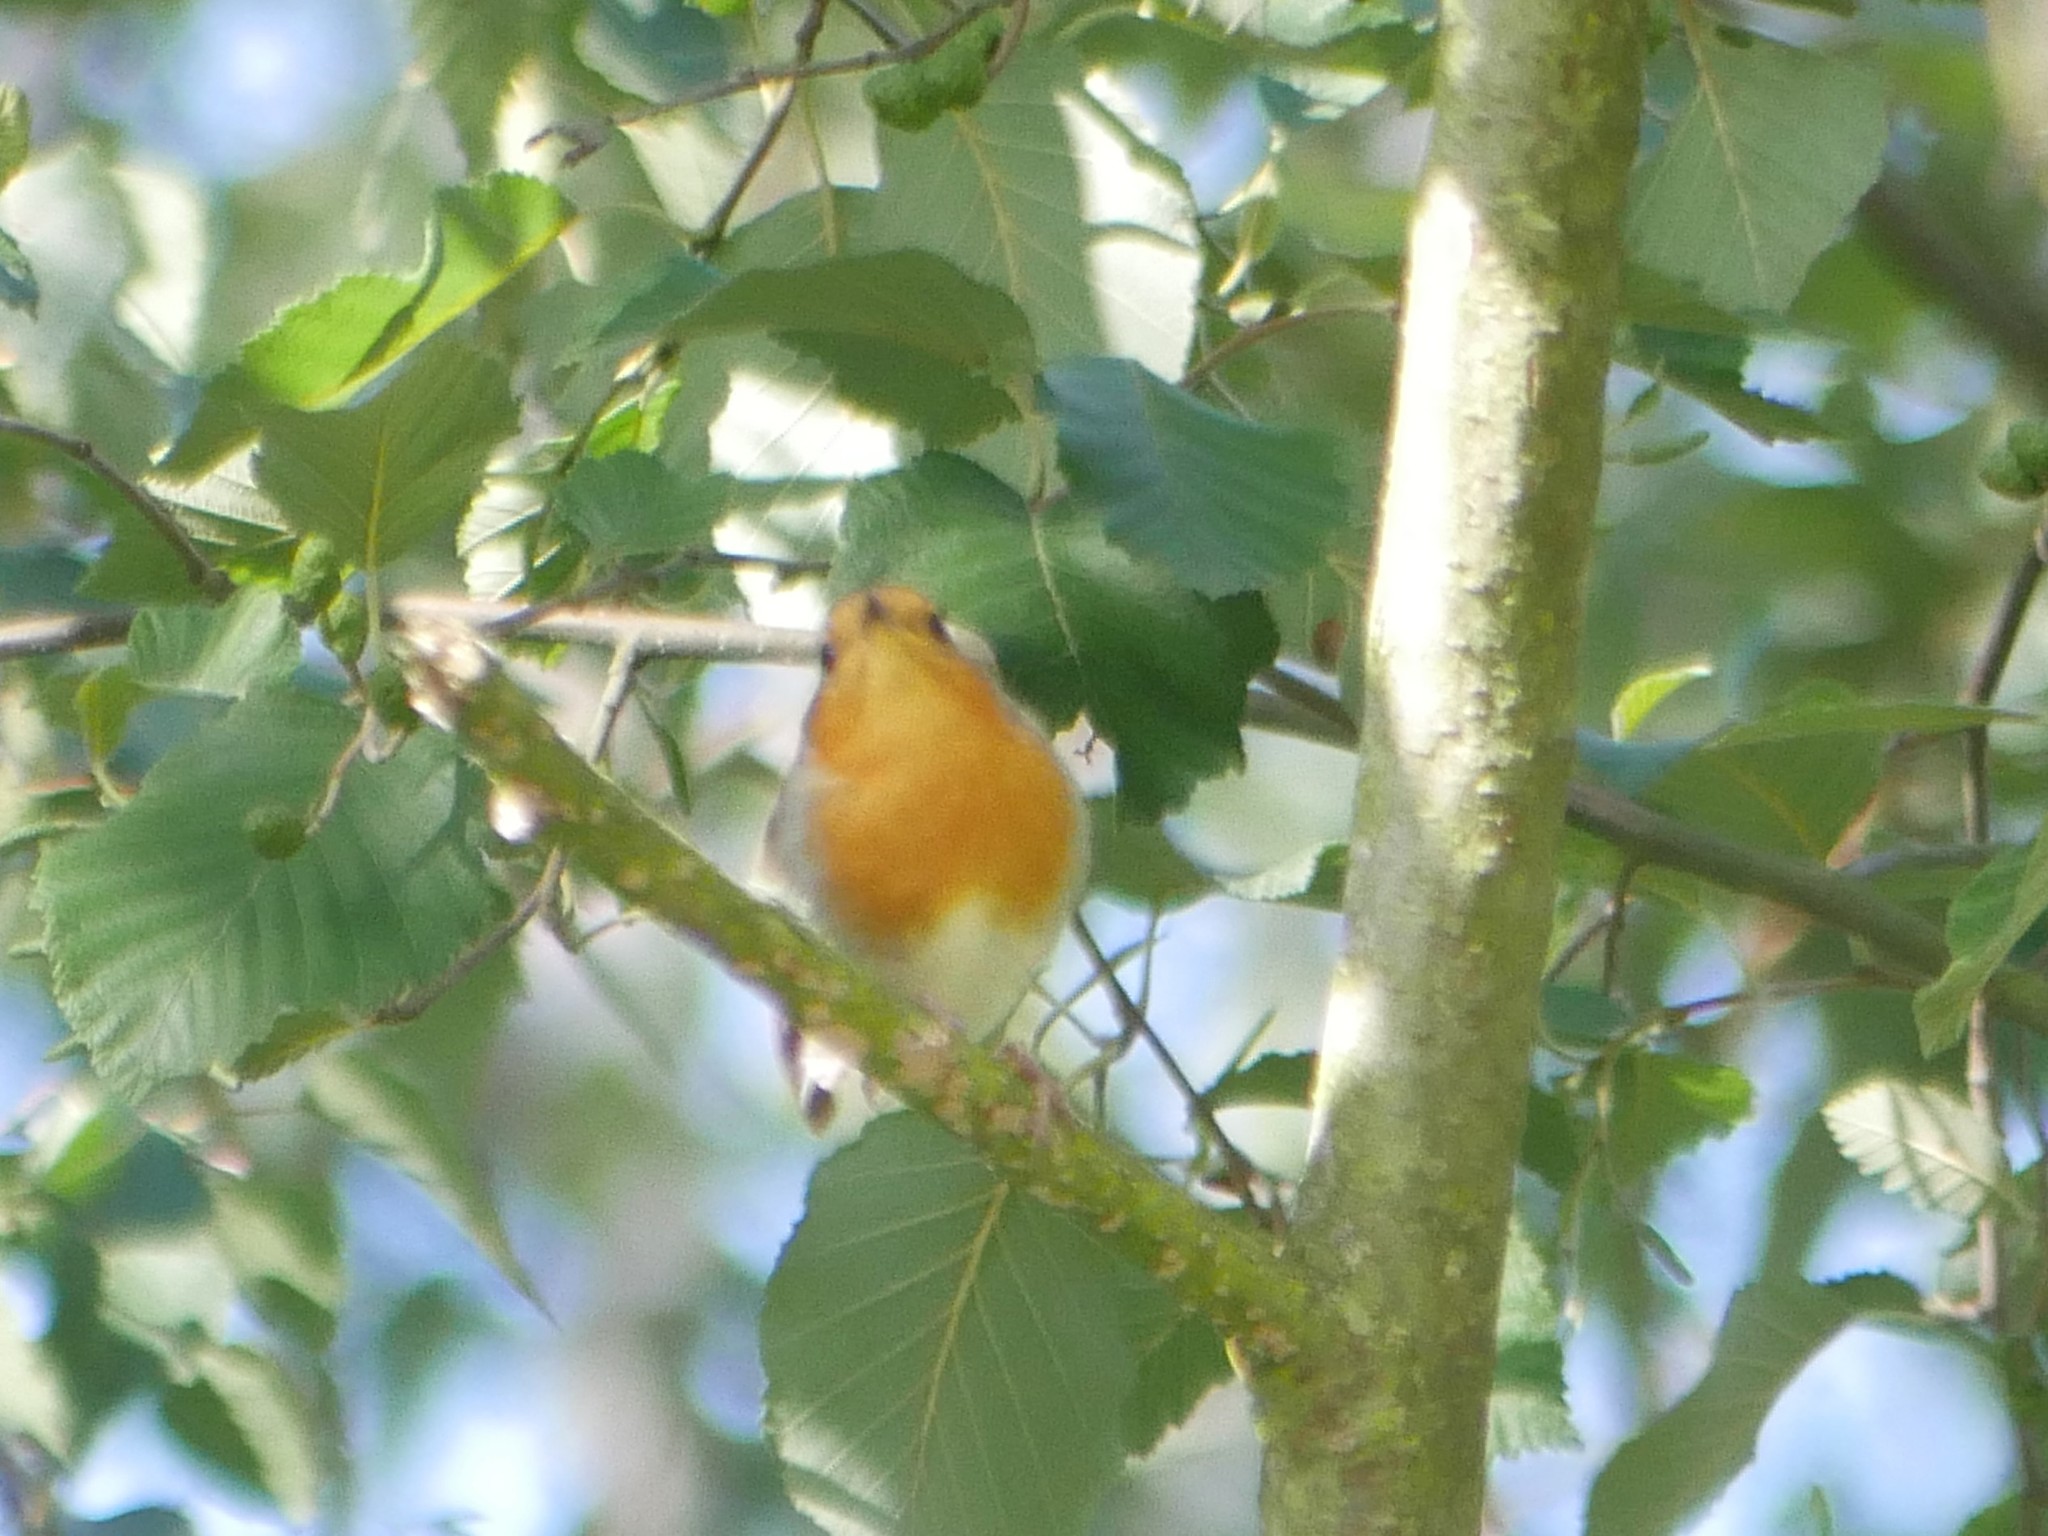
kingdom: Animalia
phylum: Chordata
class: Aves
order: Passeriformes
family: Muscicapidae
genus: Erithacus
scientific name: Erithacus rubecula
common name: European robin
